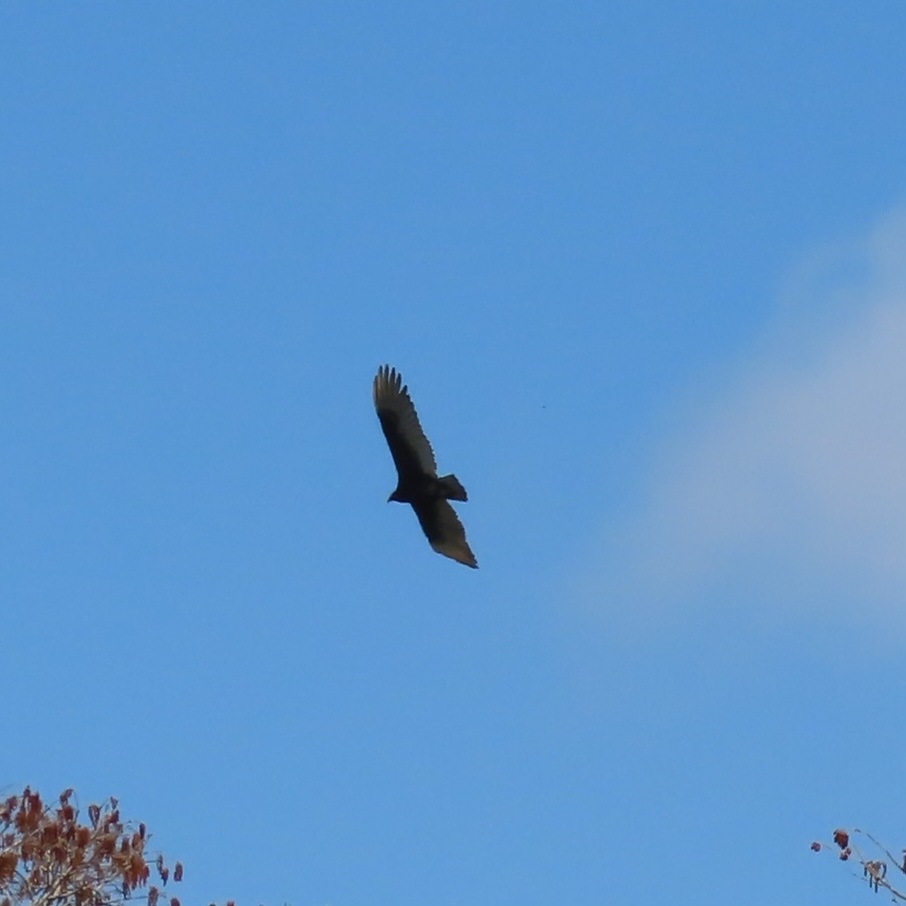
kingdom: Animalia
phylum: Chordata
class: Aves
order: Accipitriformes
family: Cathartidae
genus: Cathartes
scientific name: Cathartes aura
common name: Turkey vulture
